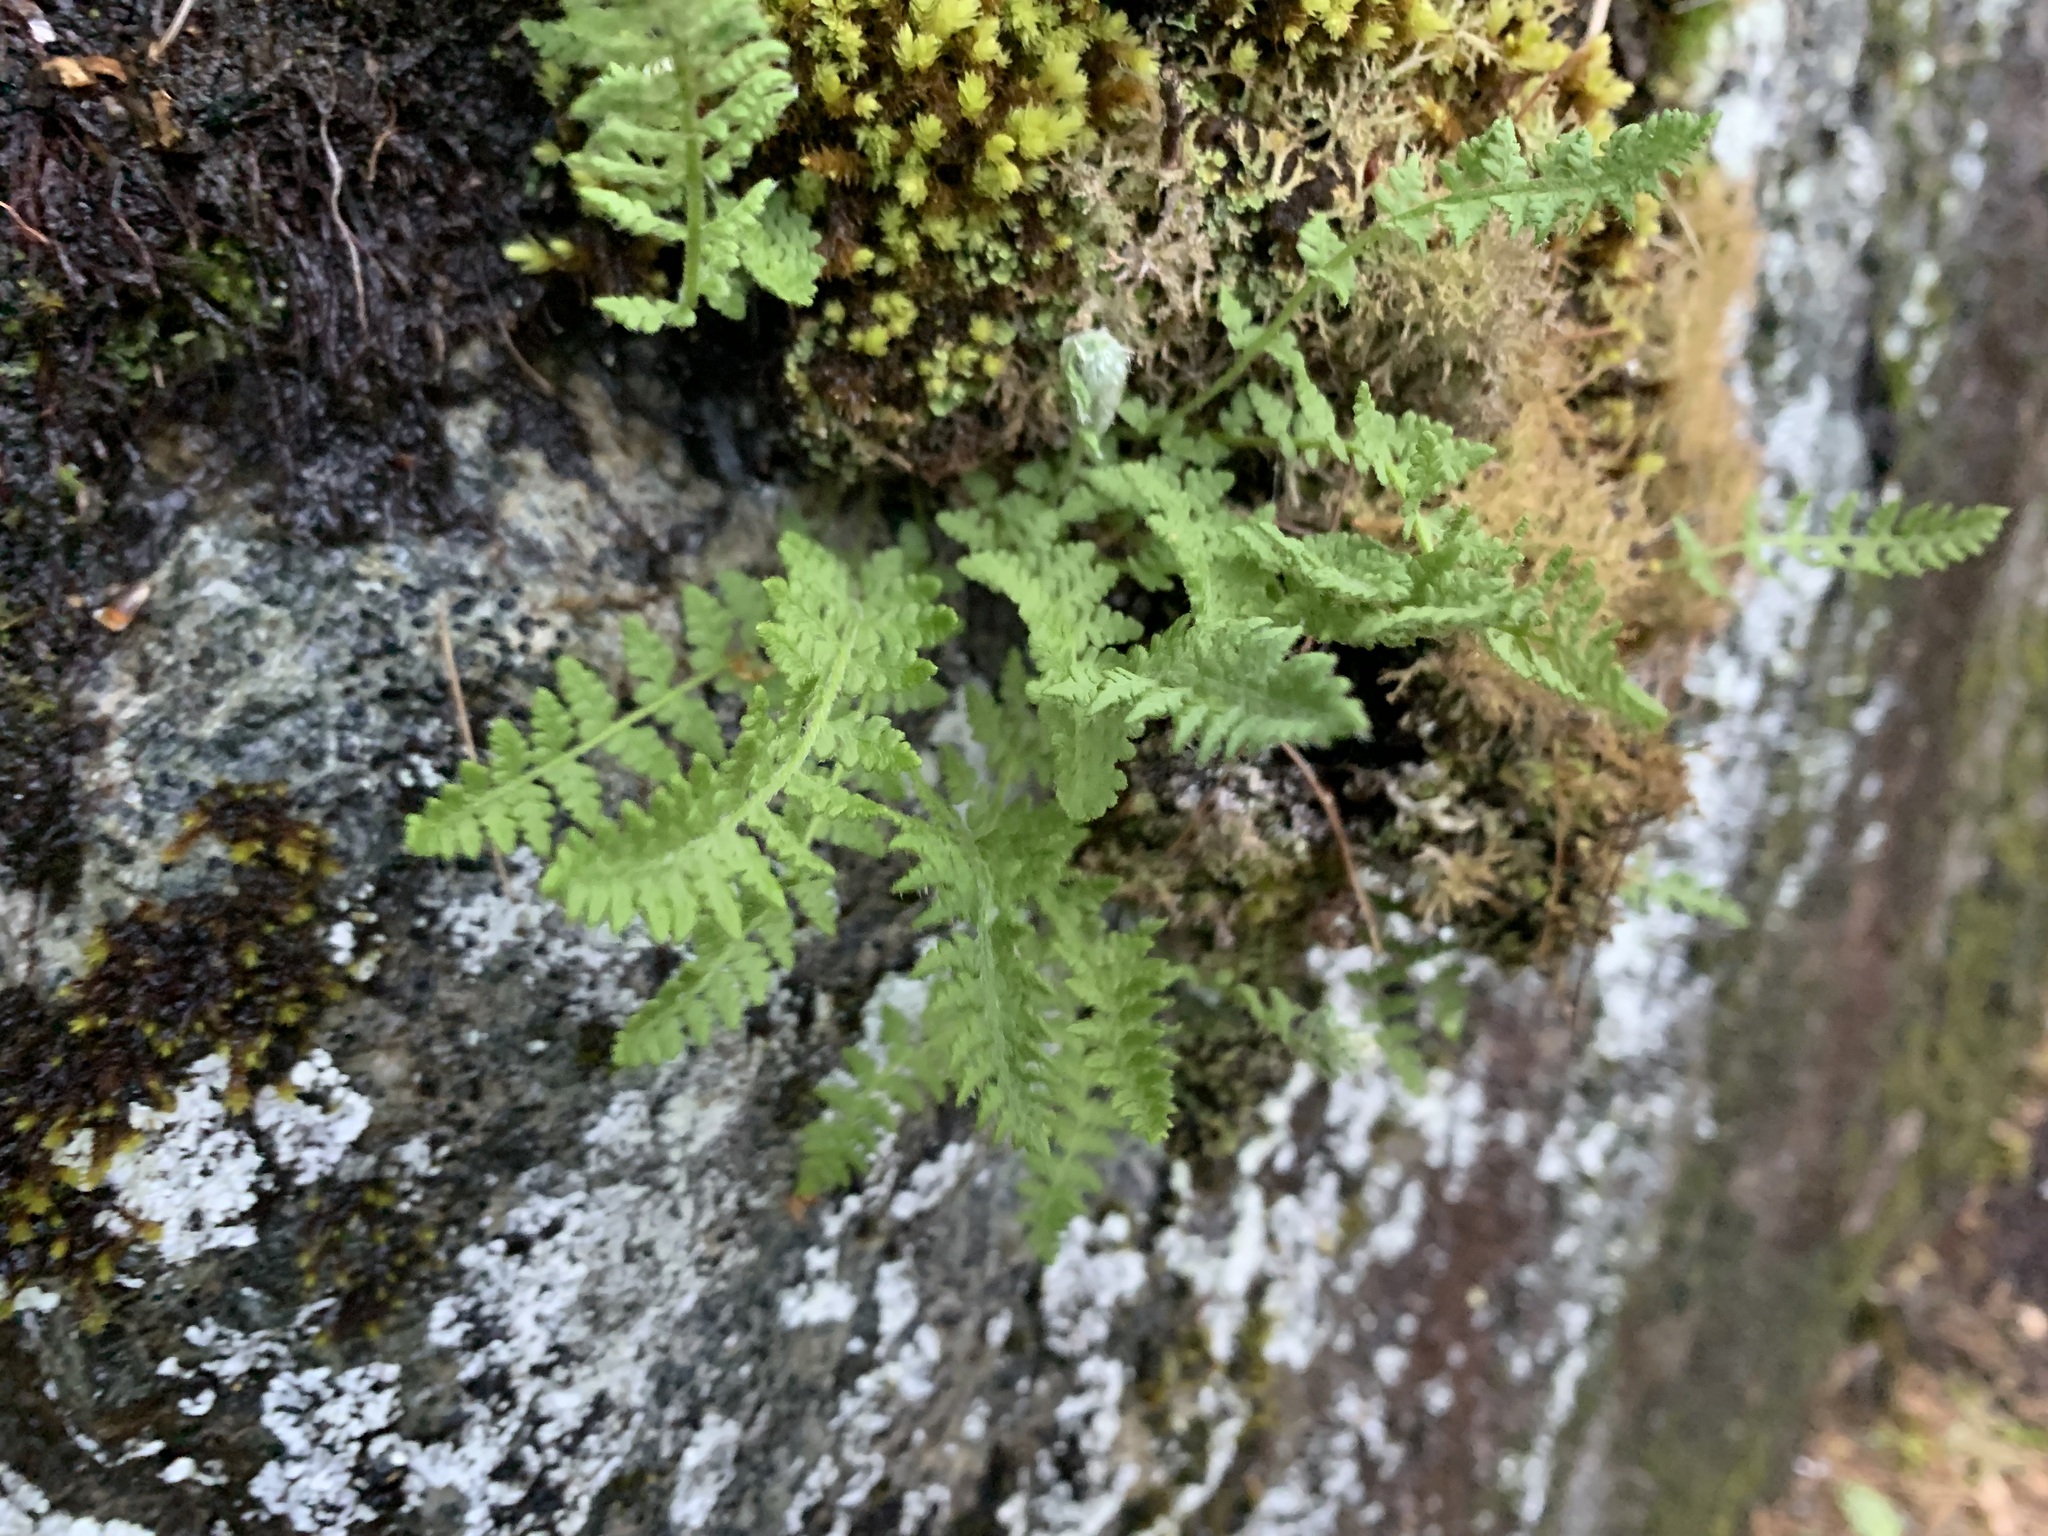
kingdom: Plantae
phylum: Tracheophyta
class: Polypodiopsida
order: Polypodiales
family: Woodsiaceae
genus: Physematium
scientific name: Physematium obtusum
